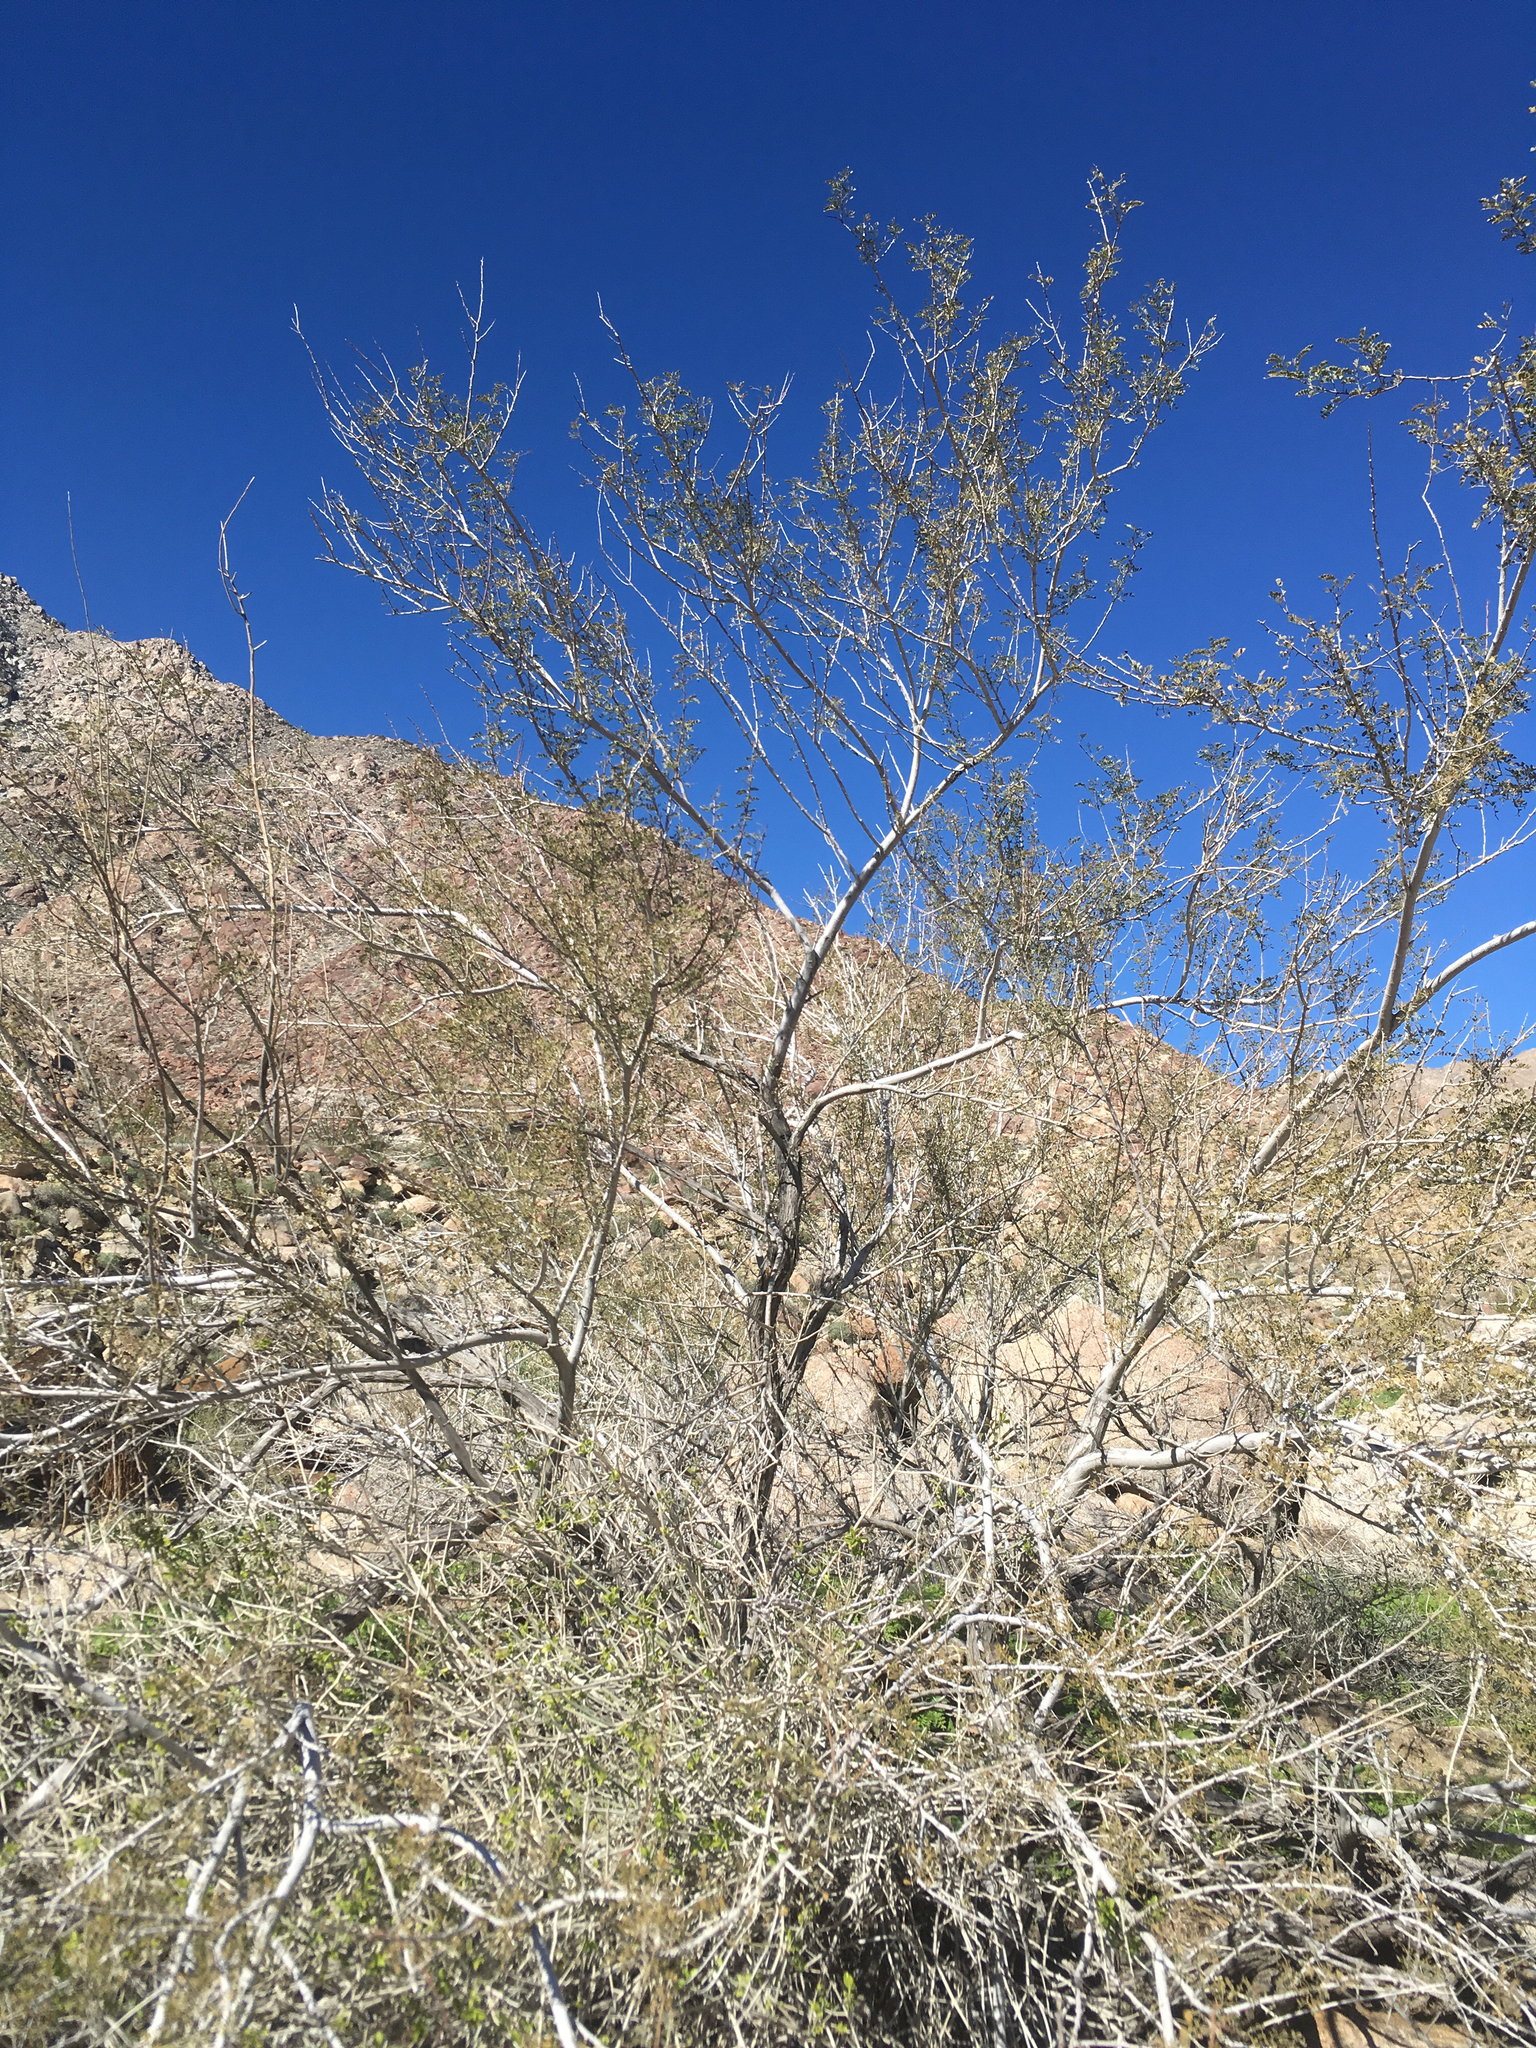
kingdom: Plantae
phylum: Tracheophyta
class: Magnoliopsida
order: Fabales
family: Fabaceae
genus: Senegalia
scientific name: Senegalia greggii
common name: Texas-mimosa
